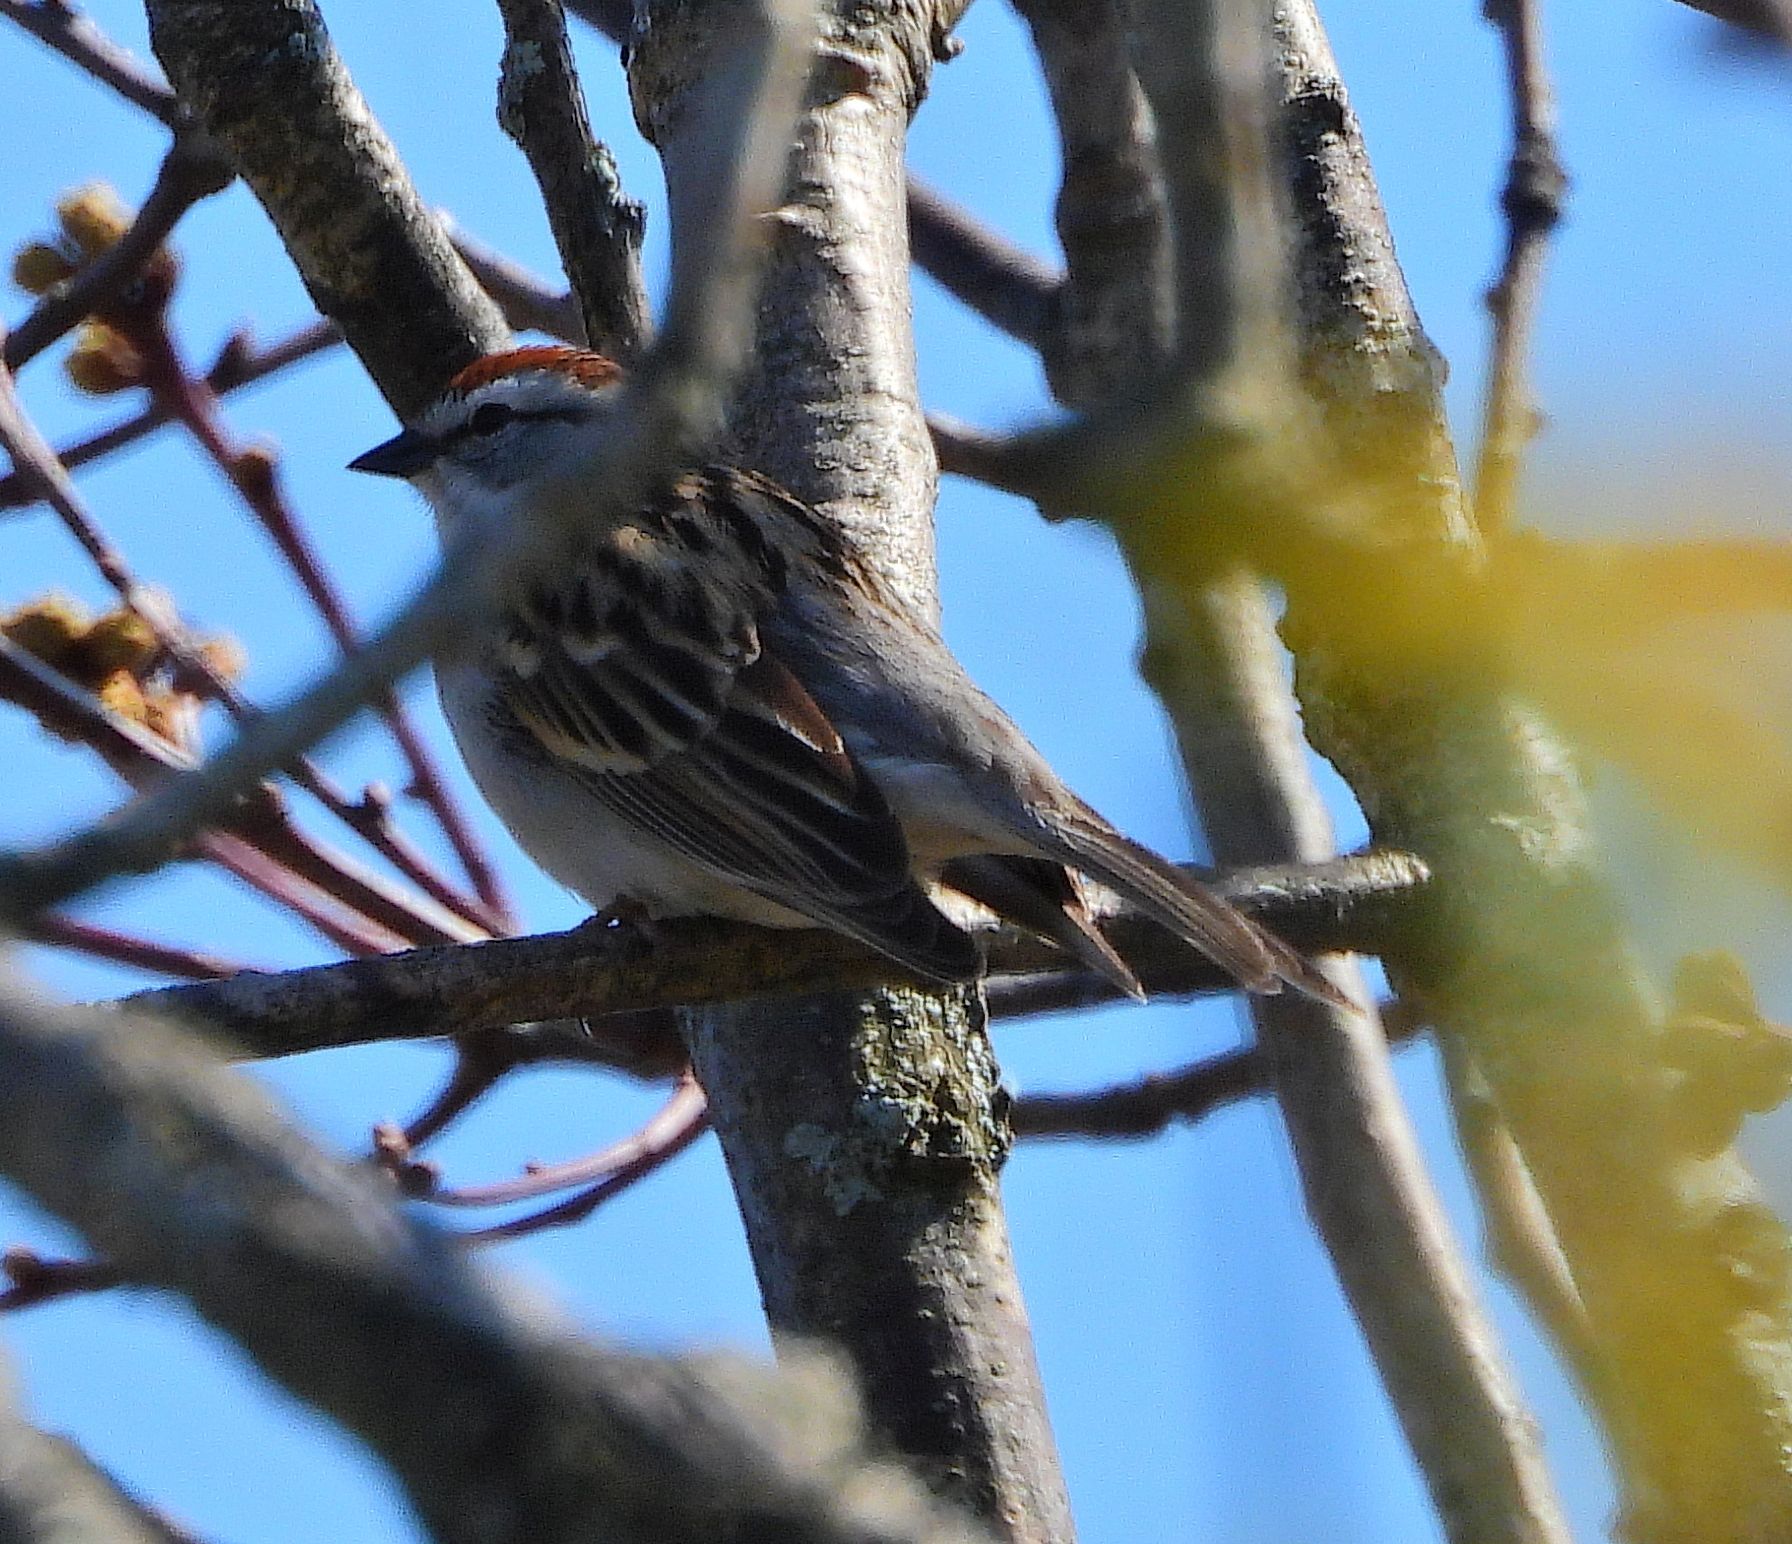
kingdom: Animalia
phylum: Chordata
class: Aves
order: Passeriformes
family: Passerellidae
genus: Spizella
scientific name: Spizella passerina
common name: Chipping sparrow
